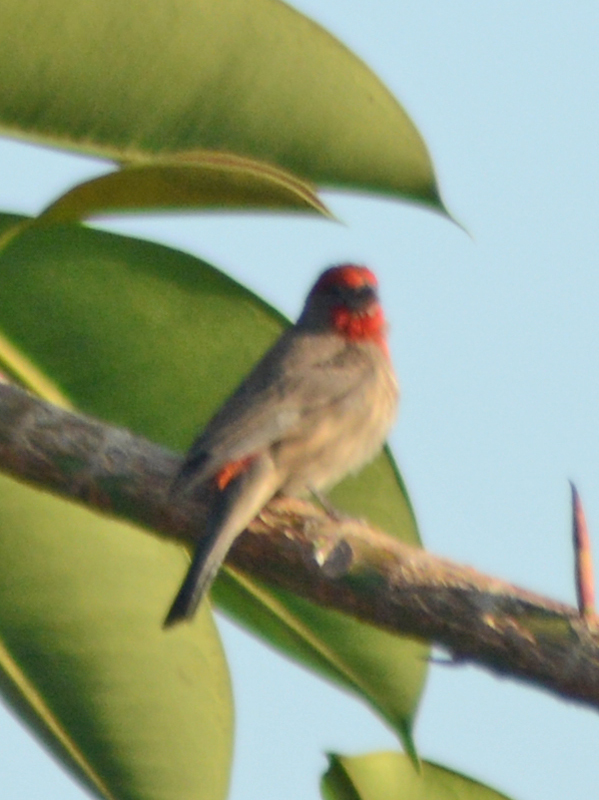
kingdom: Animalia
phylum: Chordata
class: Aves
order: Passeriformes
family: Fringillidae
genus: Haemorhous
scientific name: Haemorhous mexicanus
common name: House finch
